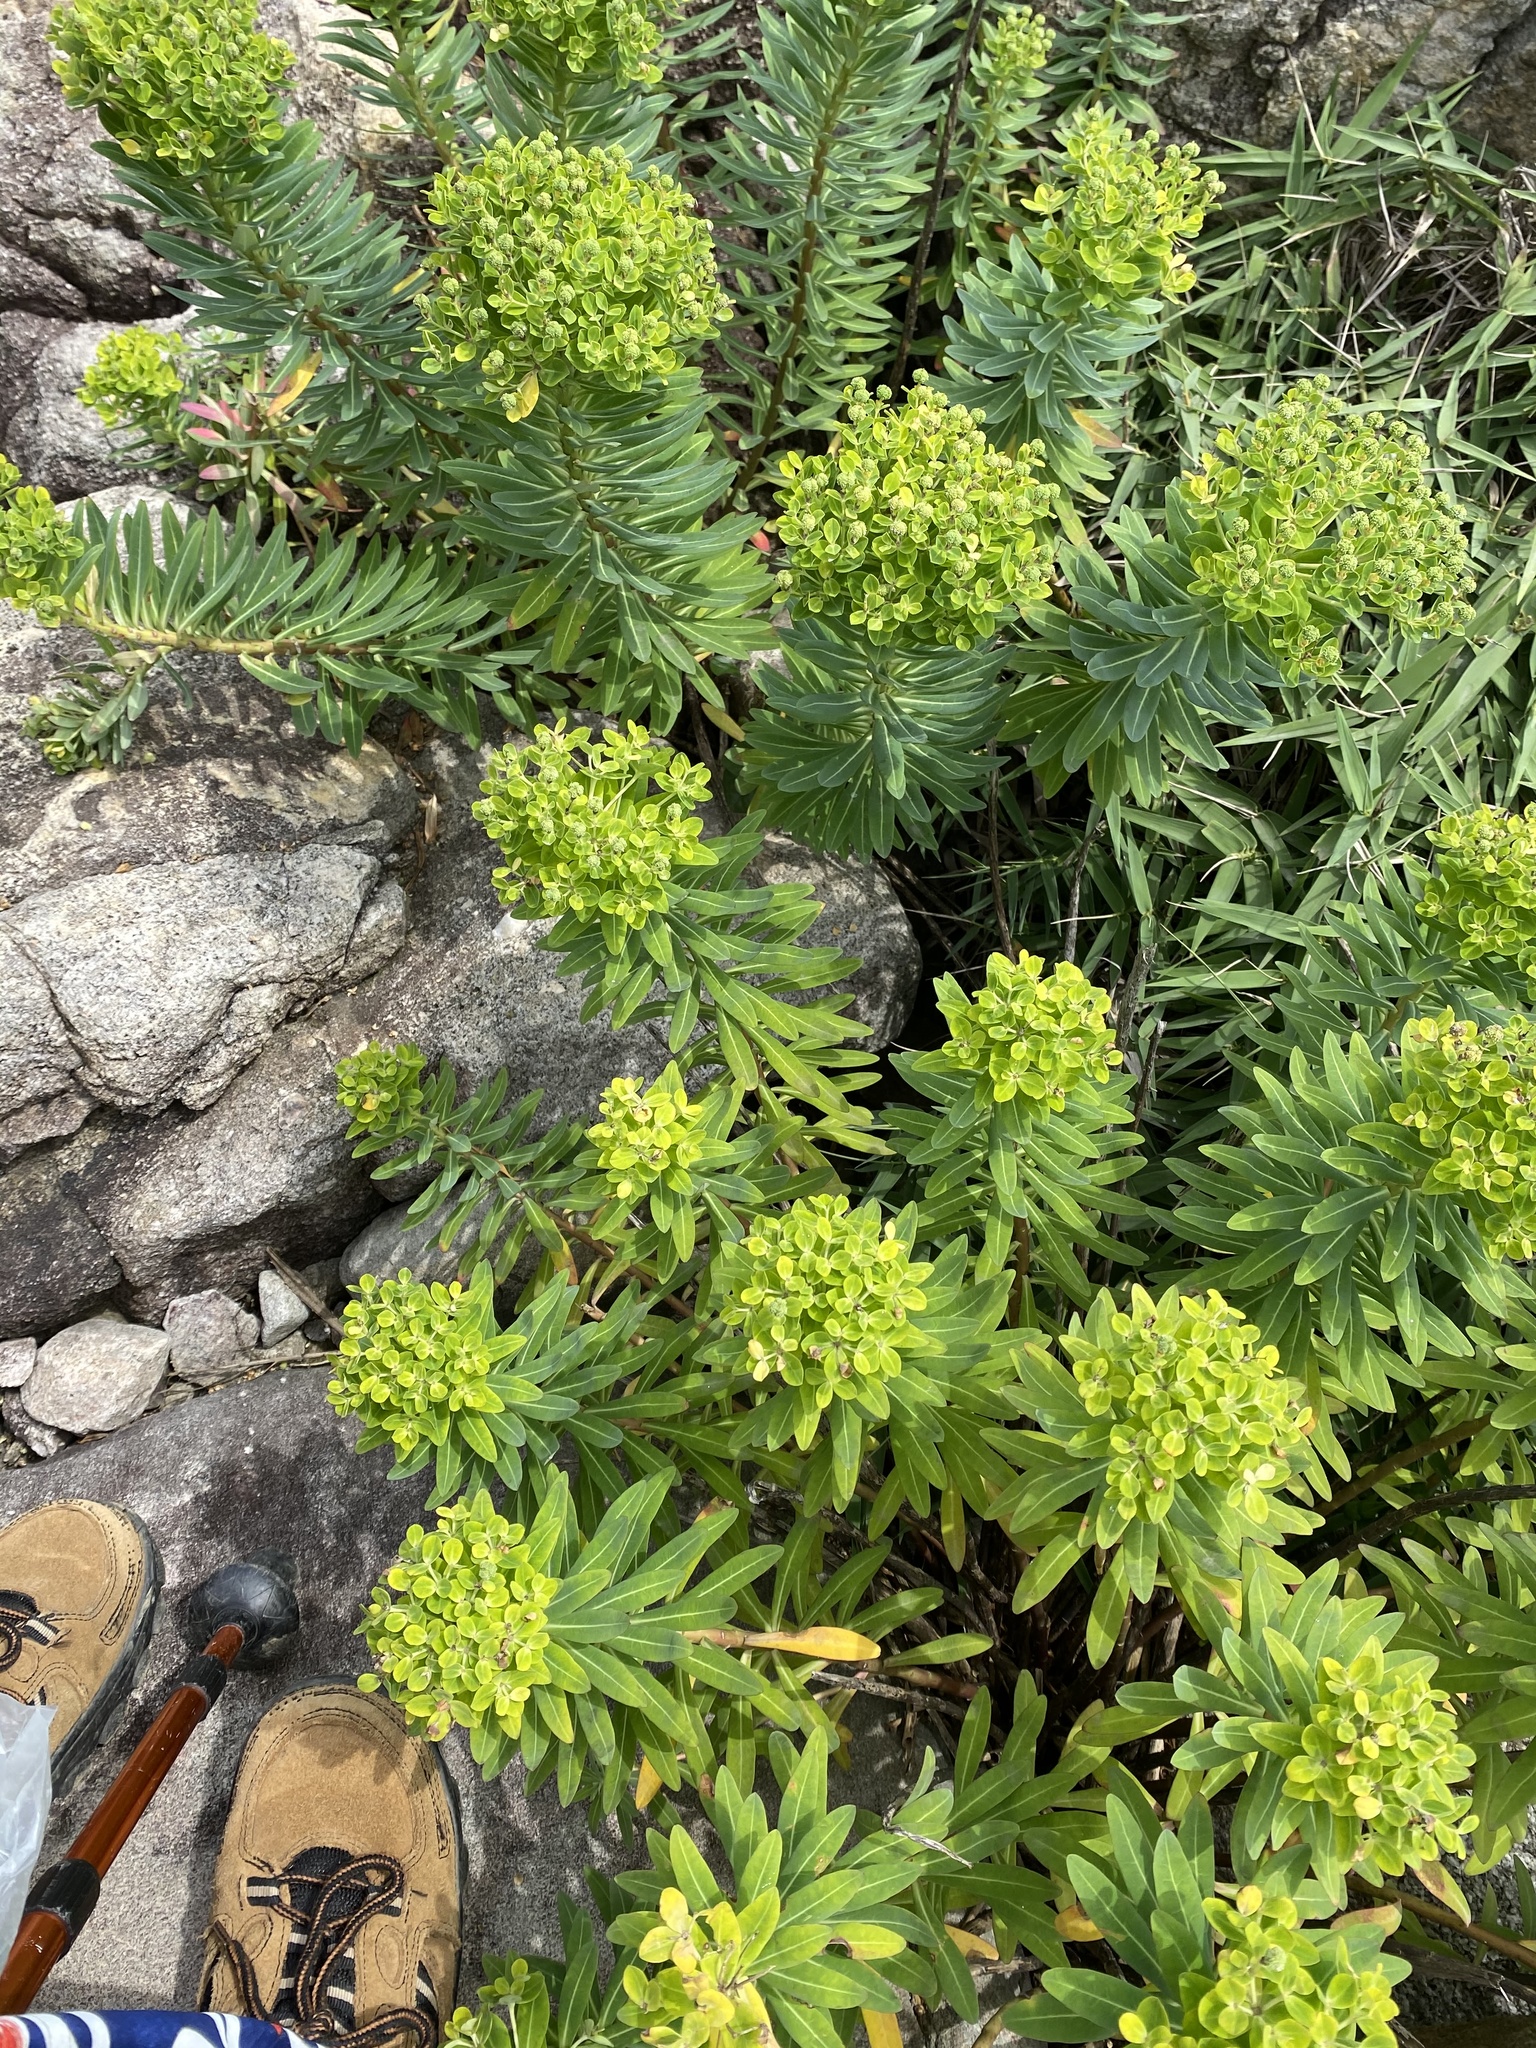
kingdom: Plantae
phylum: Tracheophyta
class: Magnoliopsida
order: Malpighiales
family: Euphorbiaceae
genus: Euphorbia
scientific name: Euphorbia jolkinii
